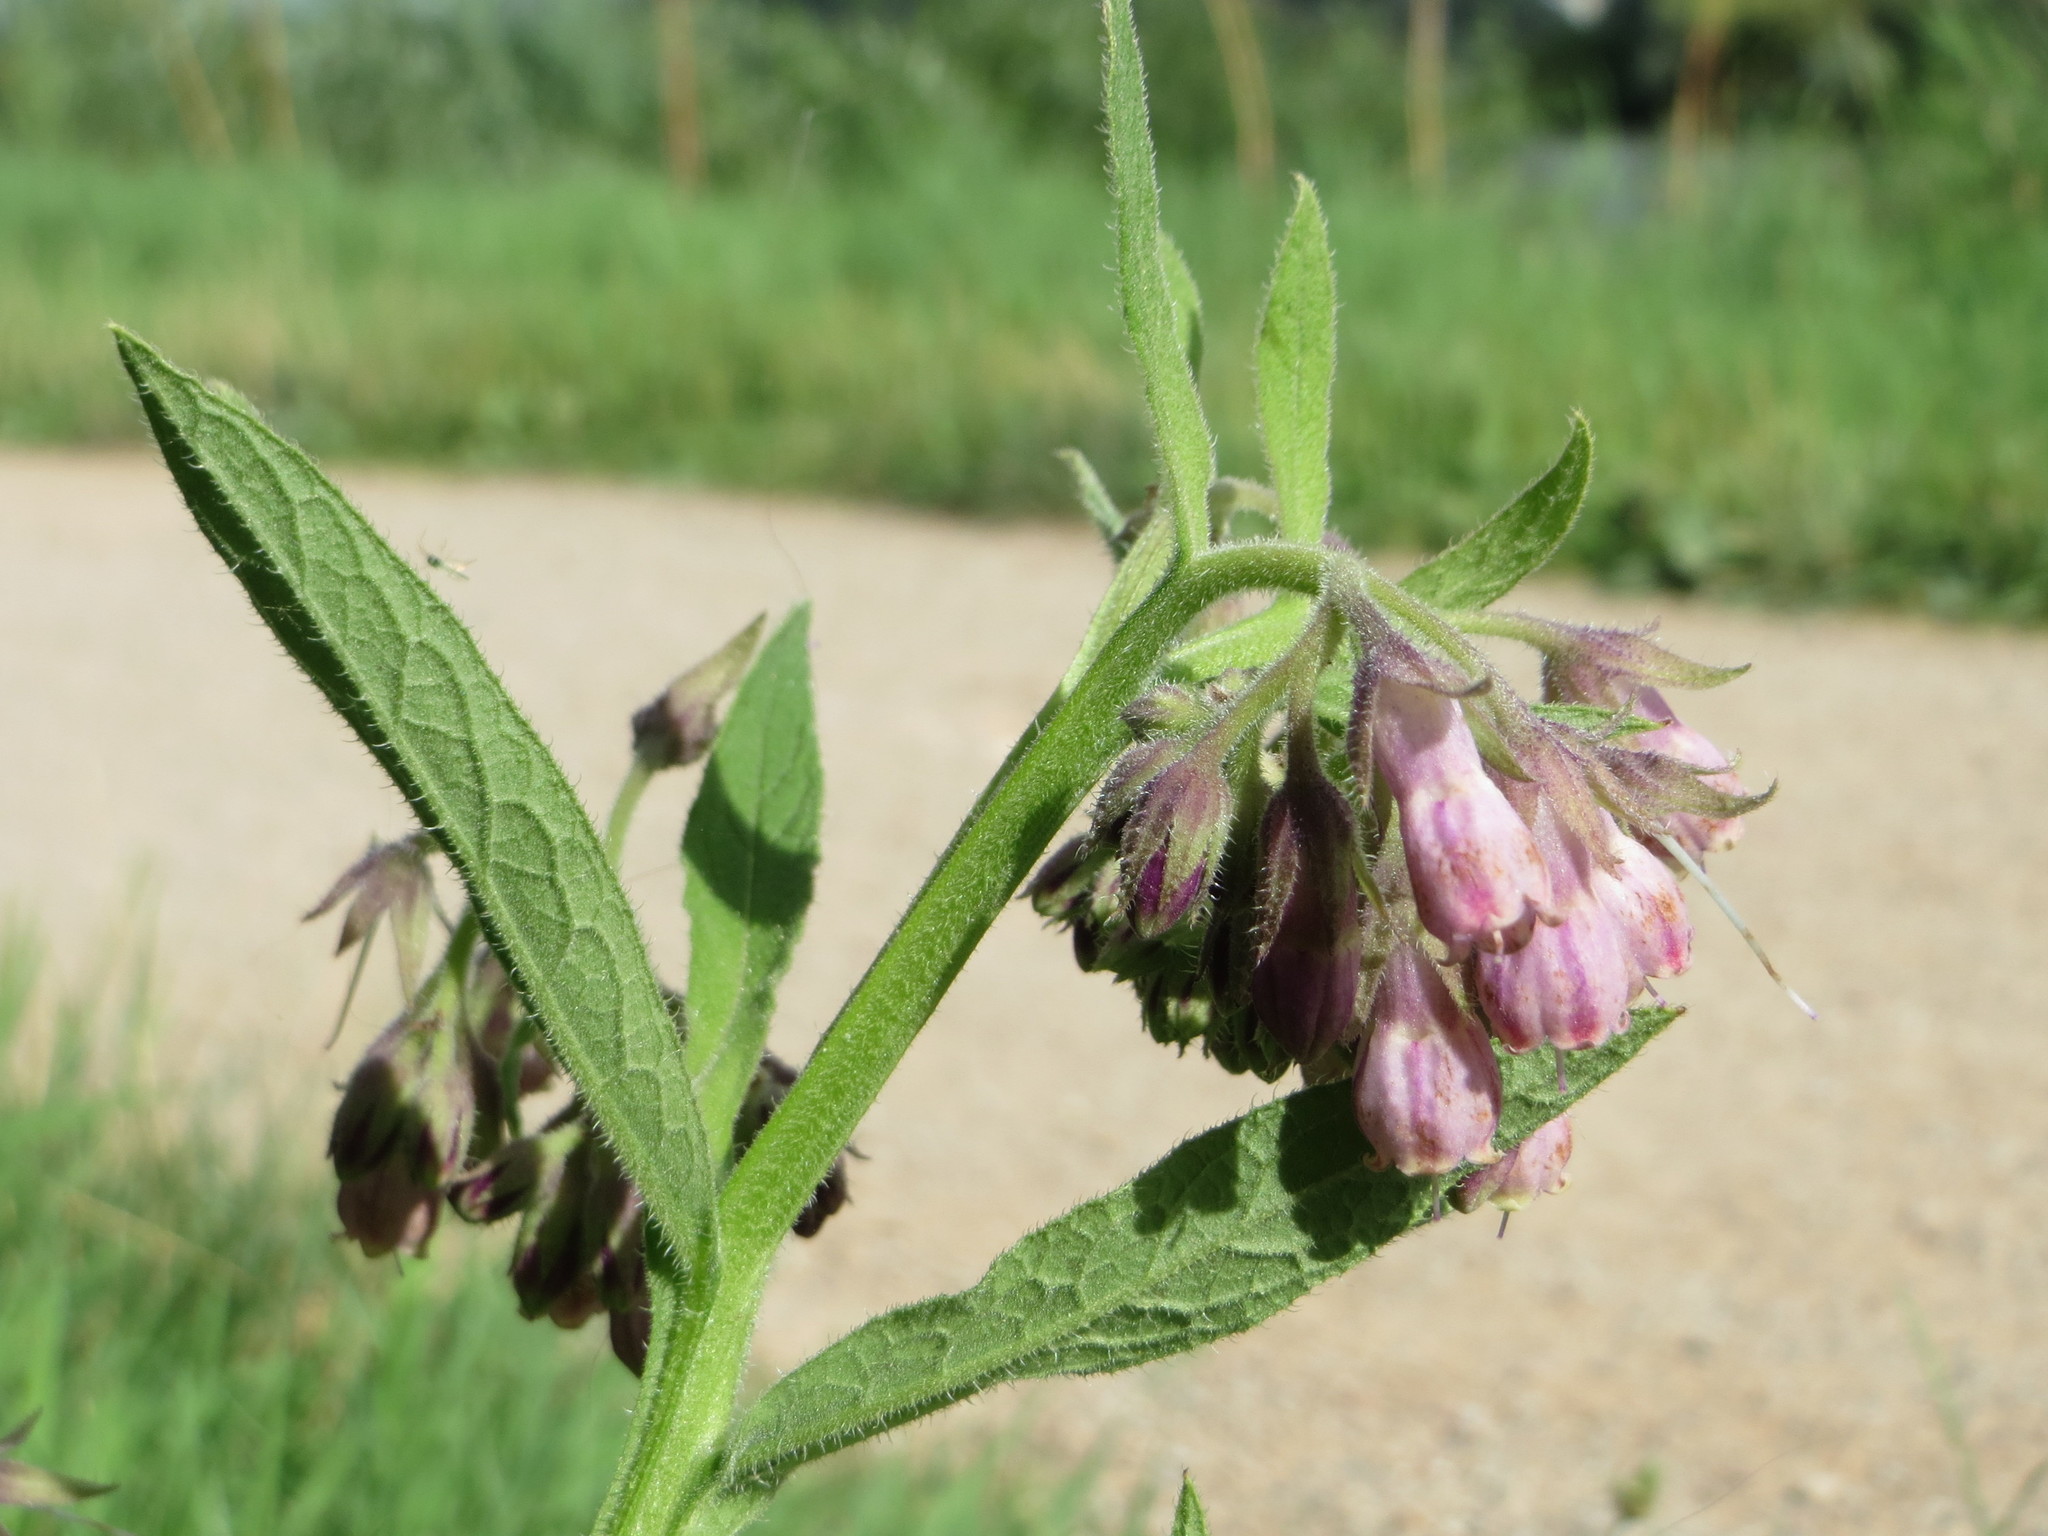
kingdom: Plantae
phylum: Tracheophyta
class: Magnoliopsida
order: Boraginales
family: Boraginaceae
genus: Symphytum
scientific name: Symphytum officinale
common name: Common comfrey
